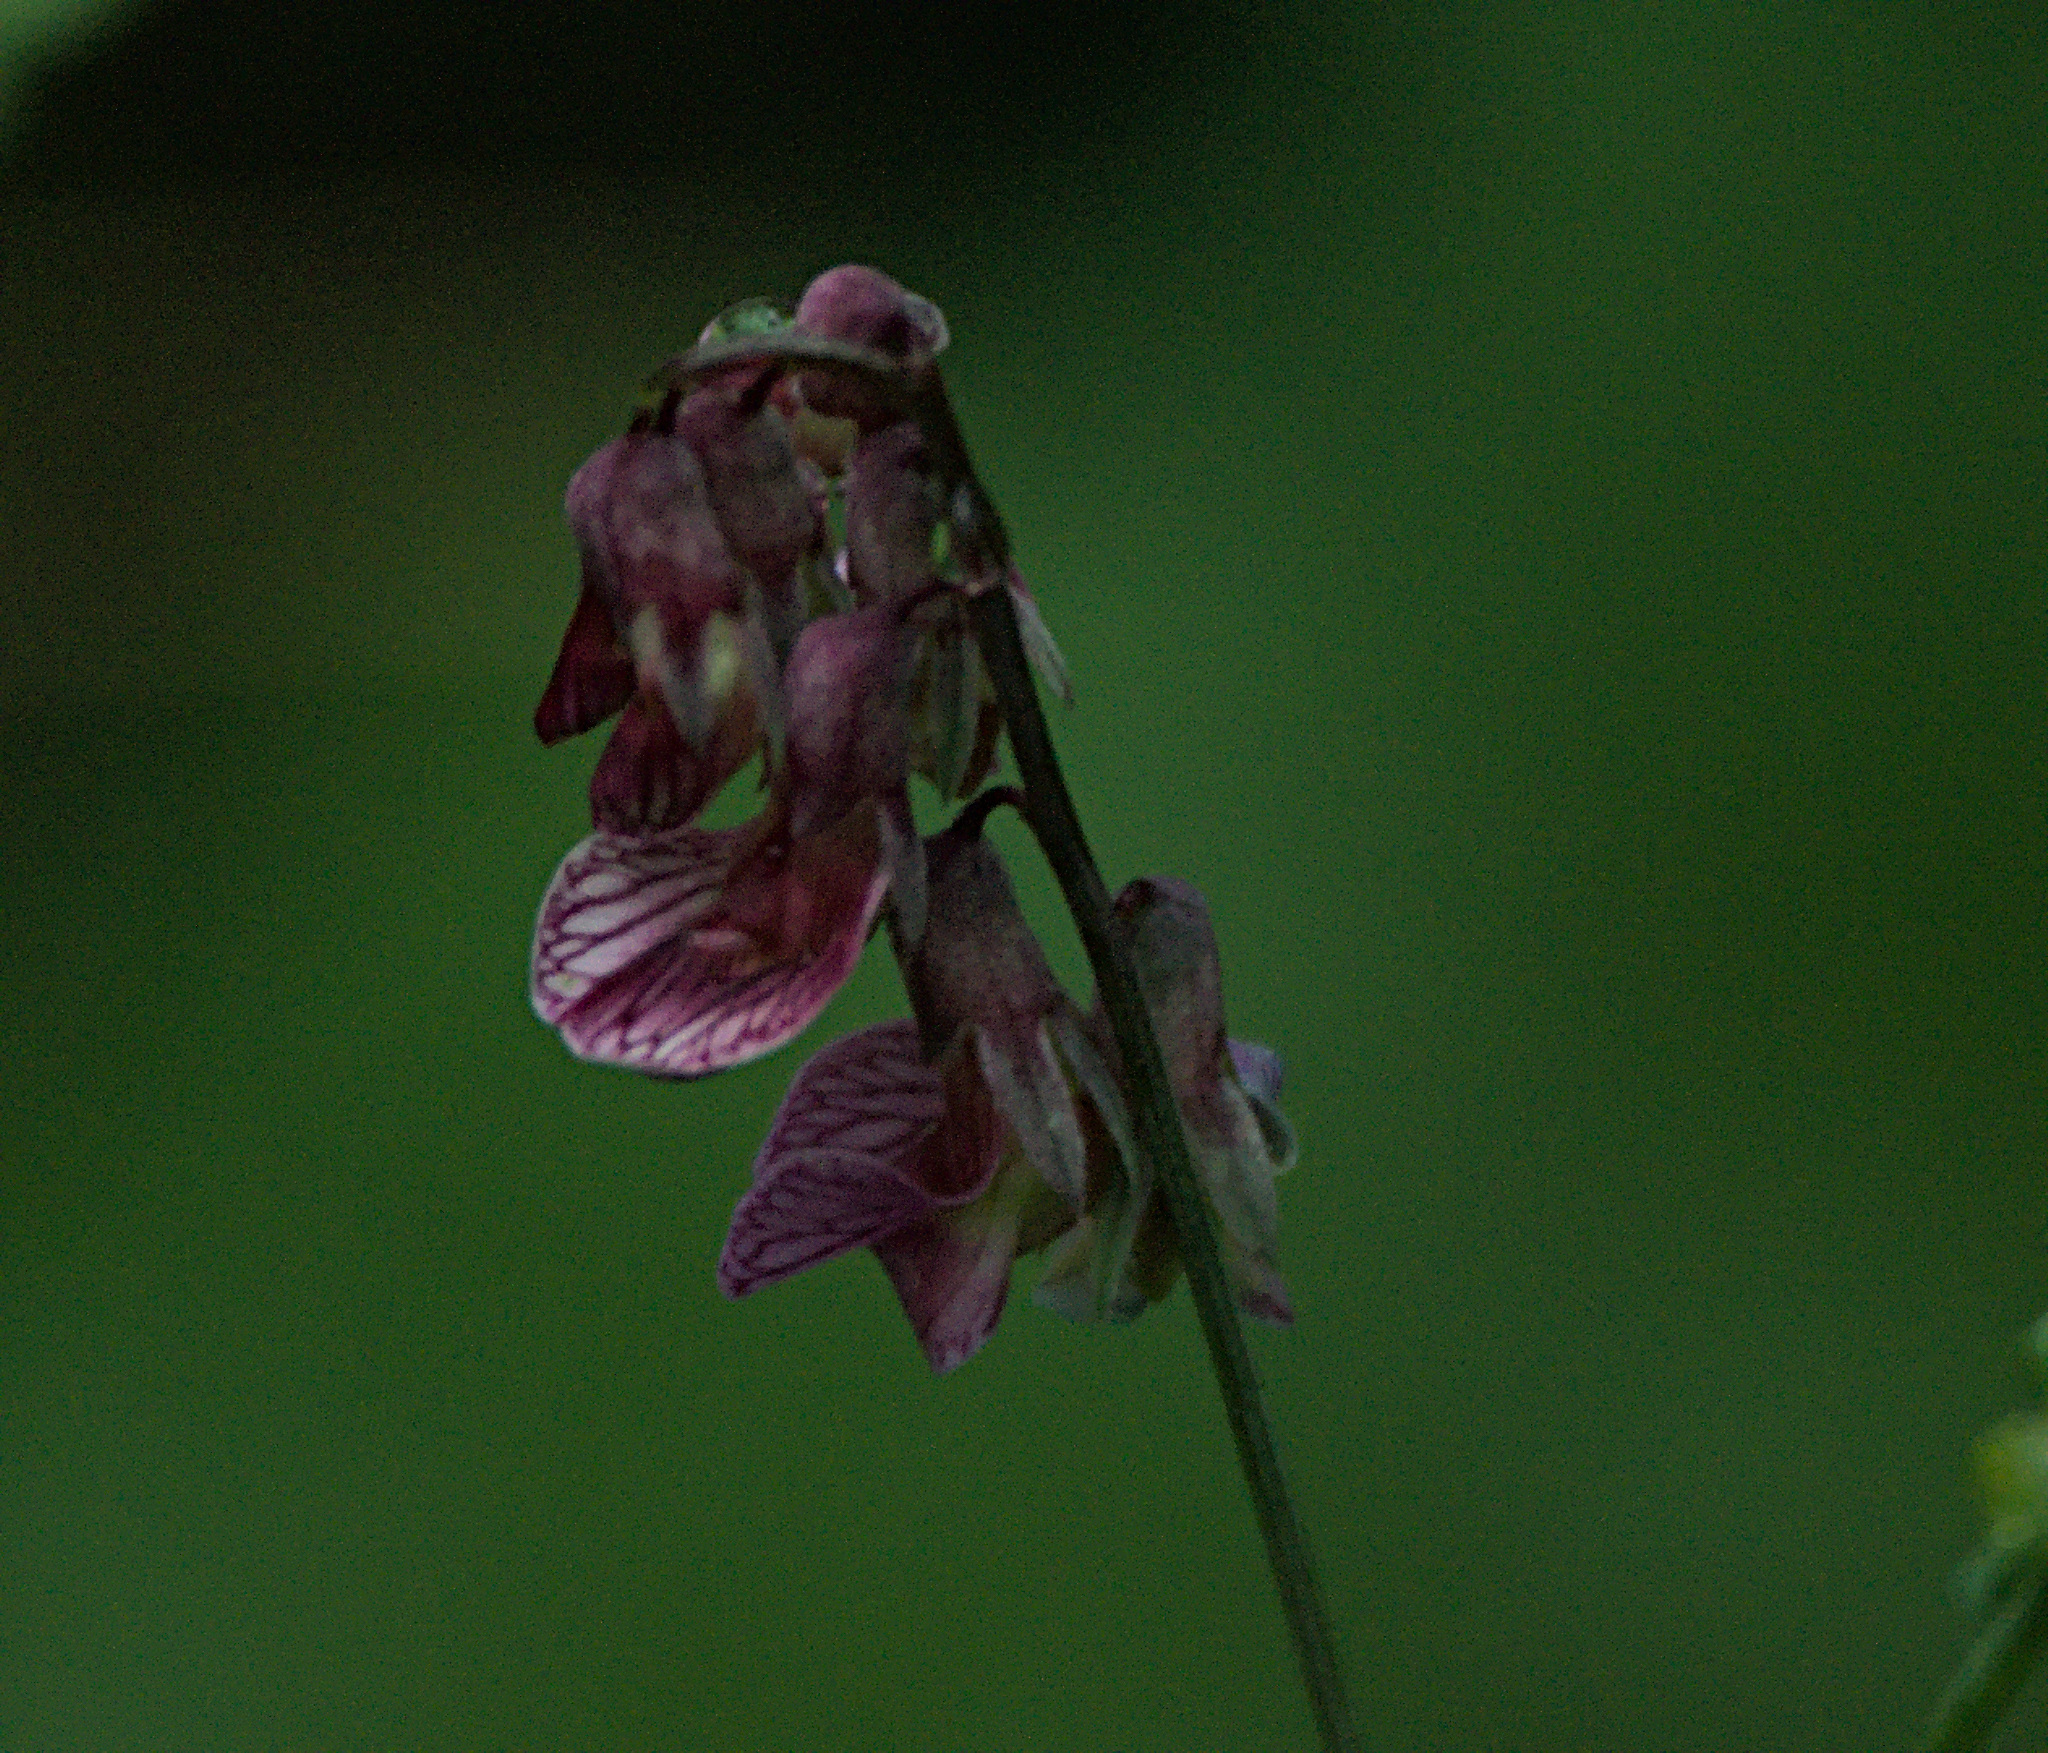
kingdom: Plantae
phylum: Tracheophyta
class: Magnoliopsida
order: Fabales
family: Fabaceae
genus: Lathyrus
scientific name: Lathyrus pisiformis
